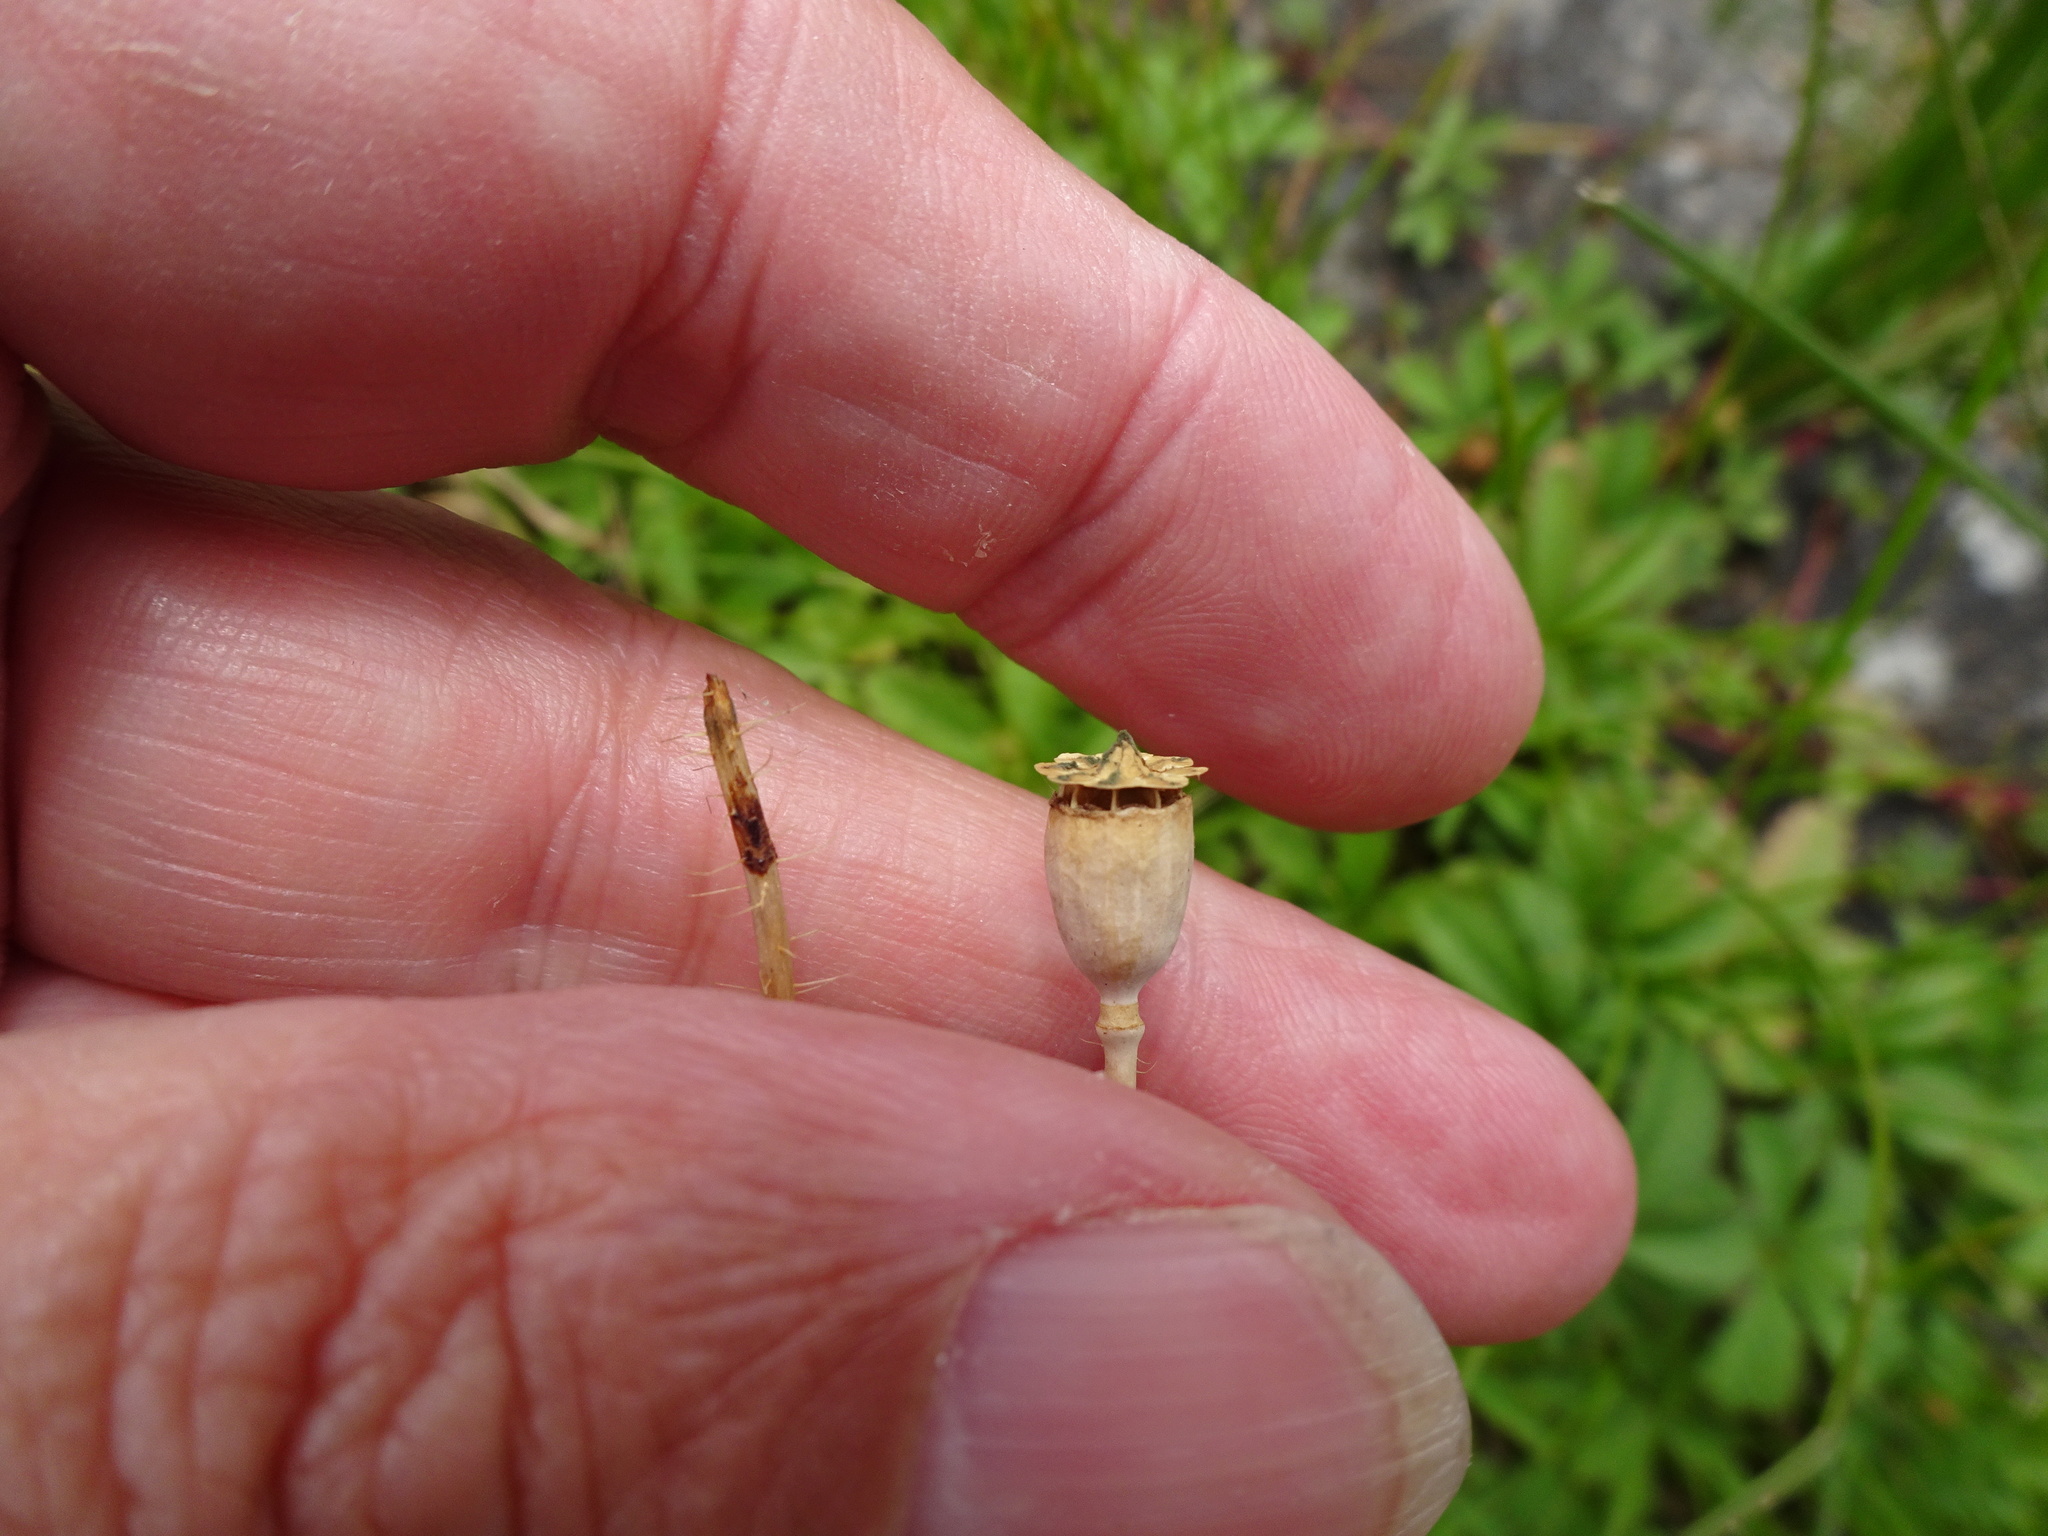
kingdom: Plantae
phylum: Tracheophyta
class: Magnoliopsida
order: Ranunculales
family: Papaveraceae
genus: Papaver
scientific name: Papaver rhoeas
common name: Corn poppy
